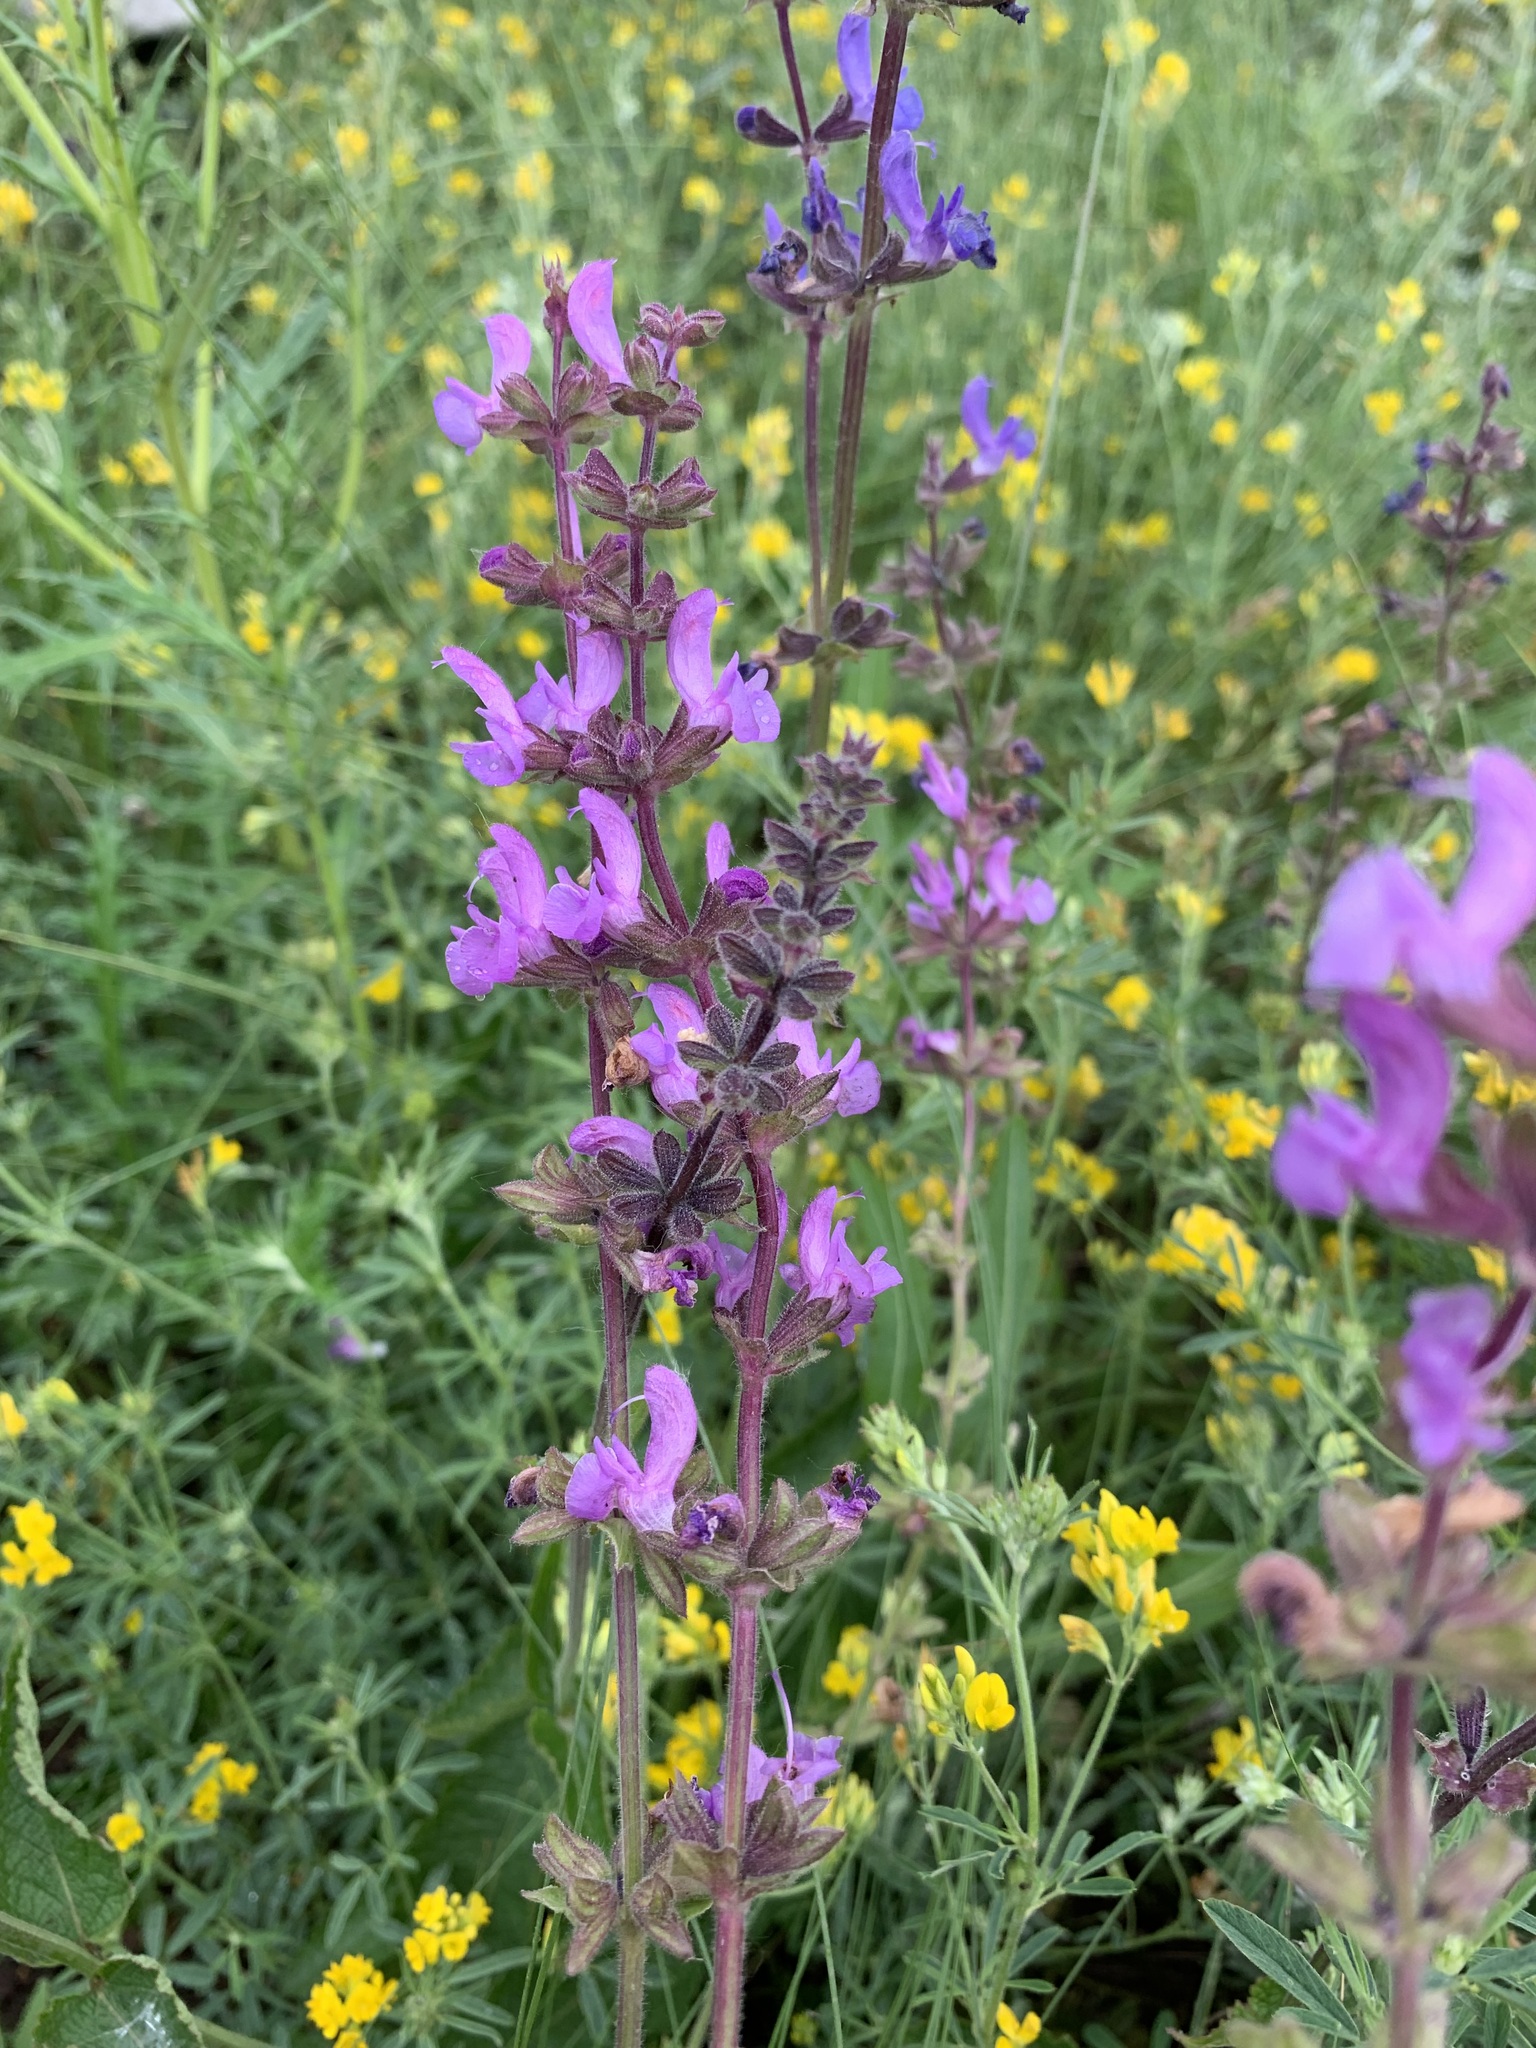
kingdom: Plantae
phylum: Tracheophyta
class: Magnoliopsida
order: Lamiales
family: Lamiaceae
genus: Salvia
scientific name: Salvia dumetorum
